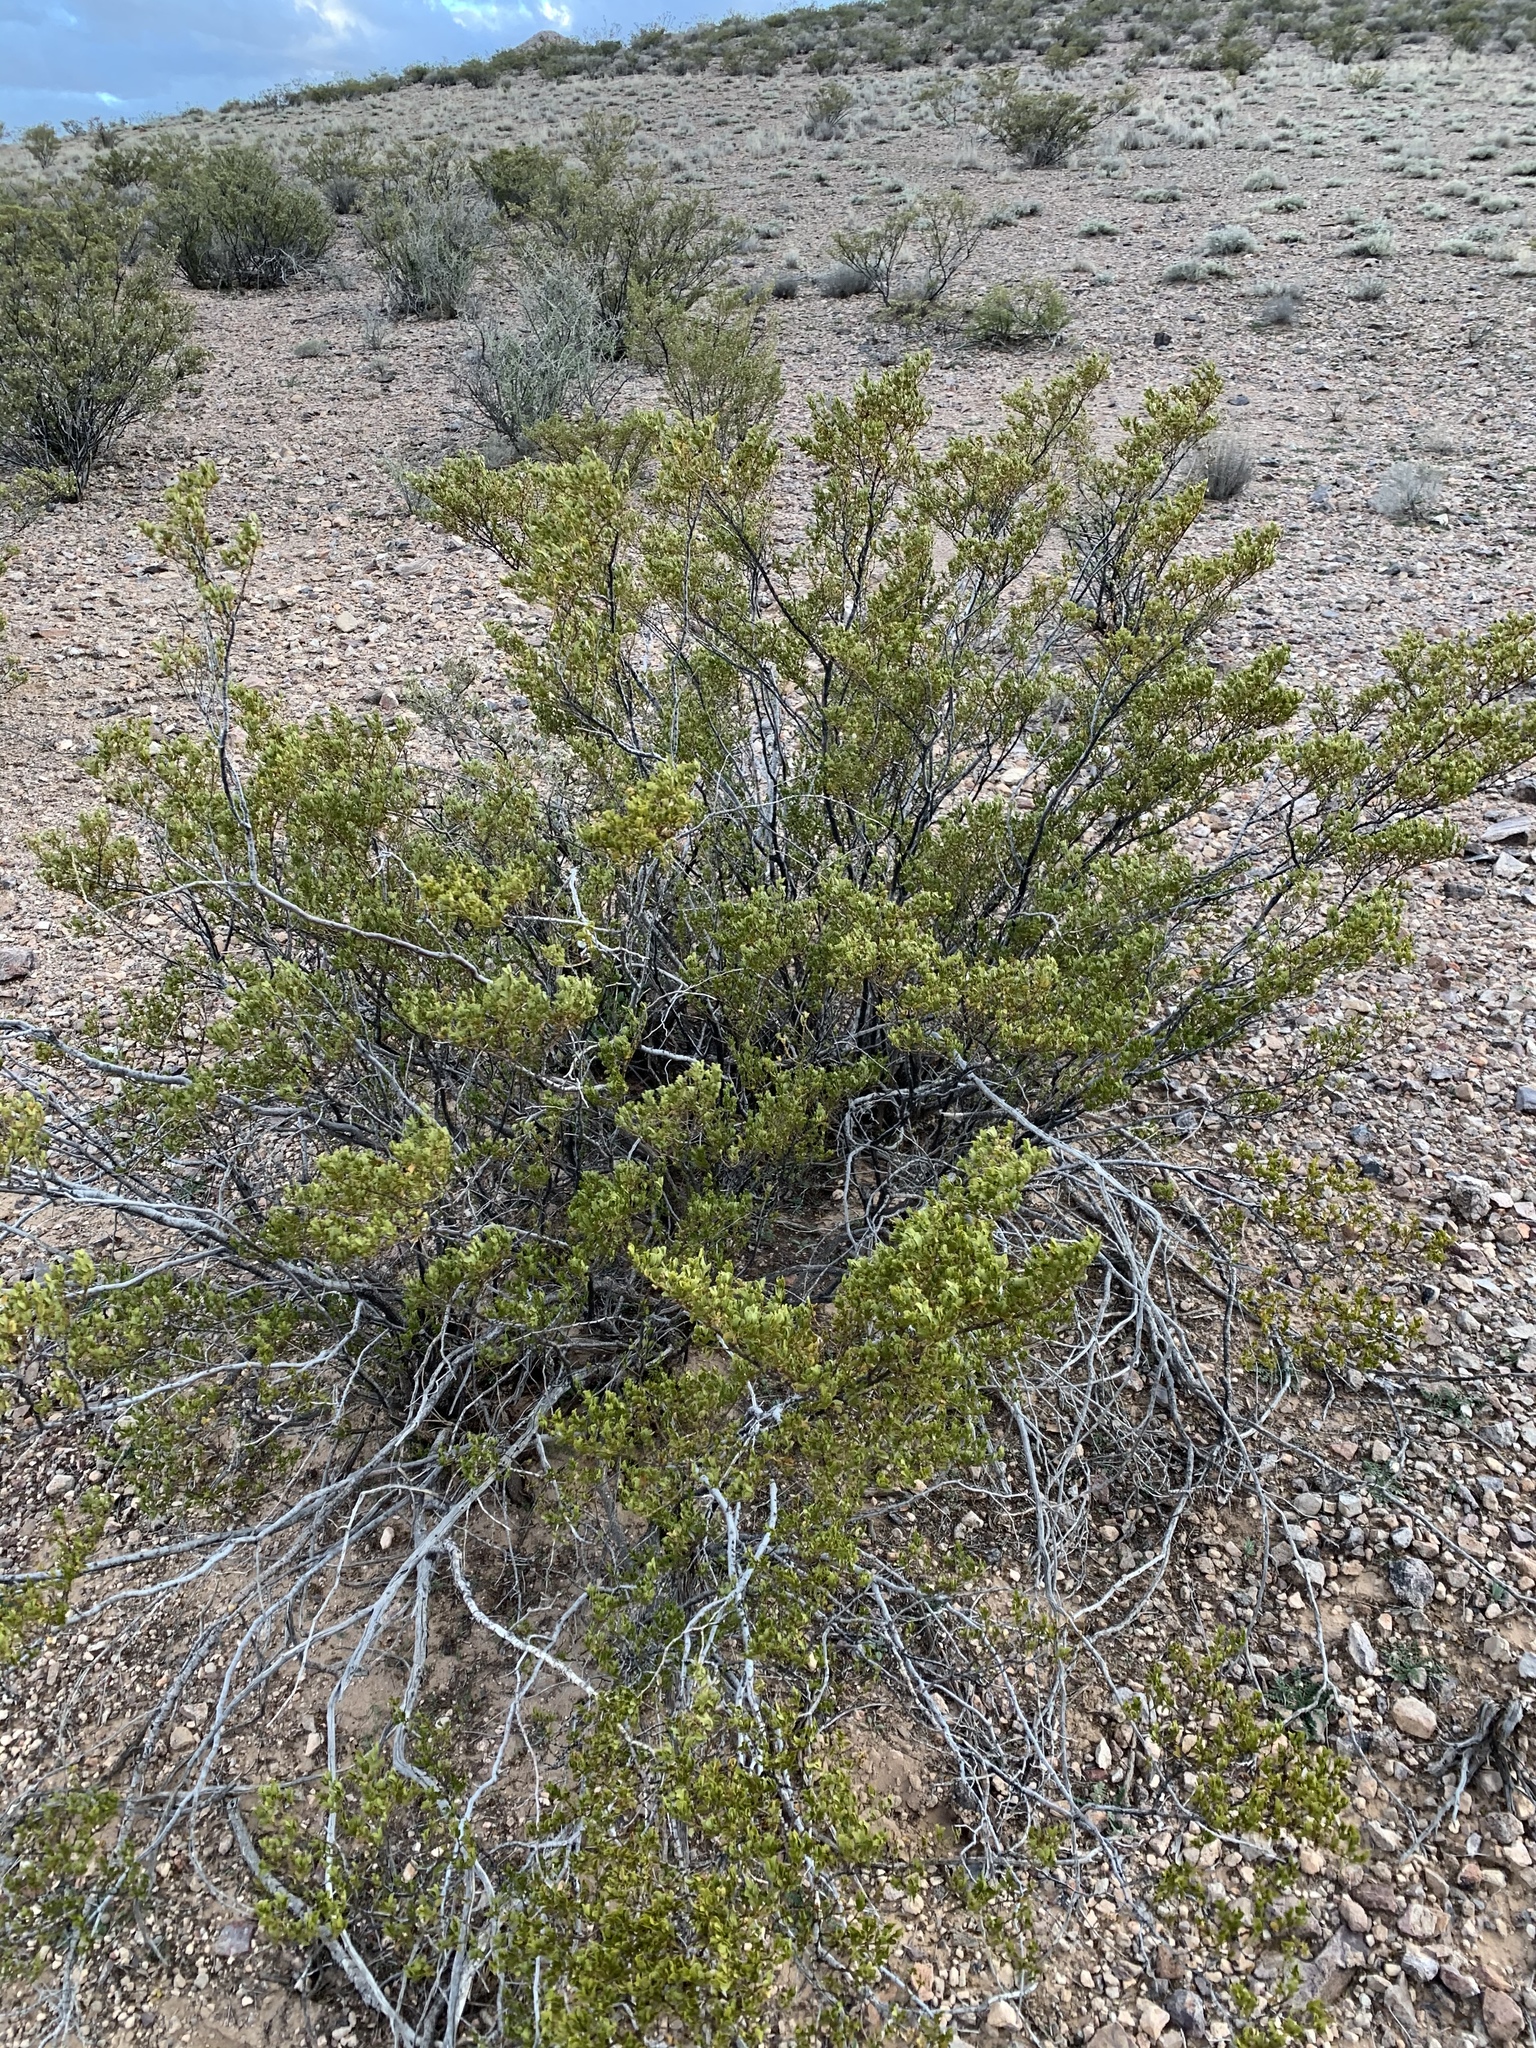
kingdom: Plantae
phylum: Tracheophyta
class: Magnoliopsida
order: Zygophyllales
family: Zygophyllaceae
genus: Larrea
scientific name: Larrea tridentata
